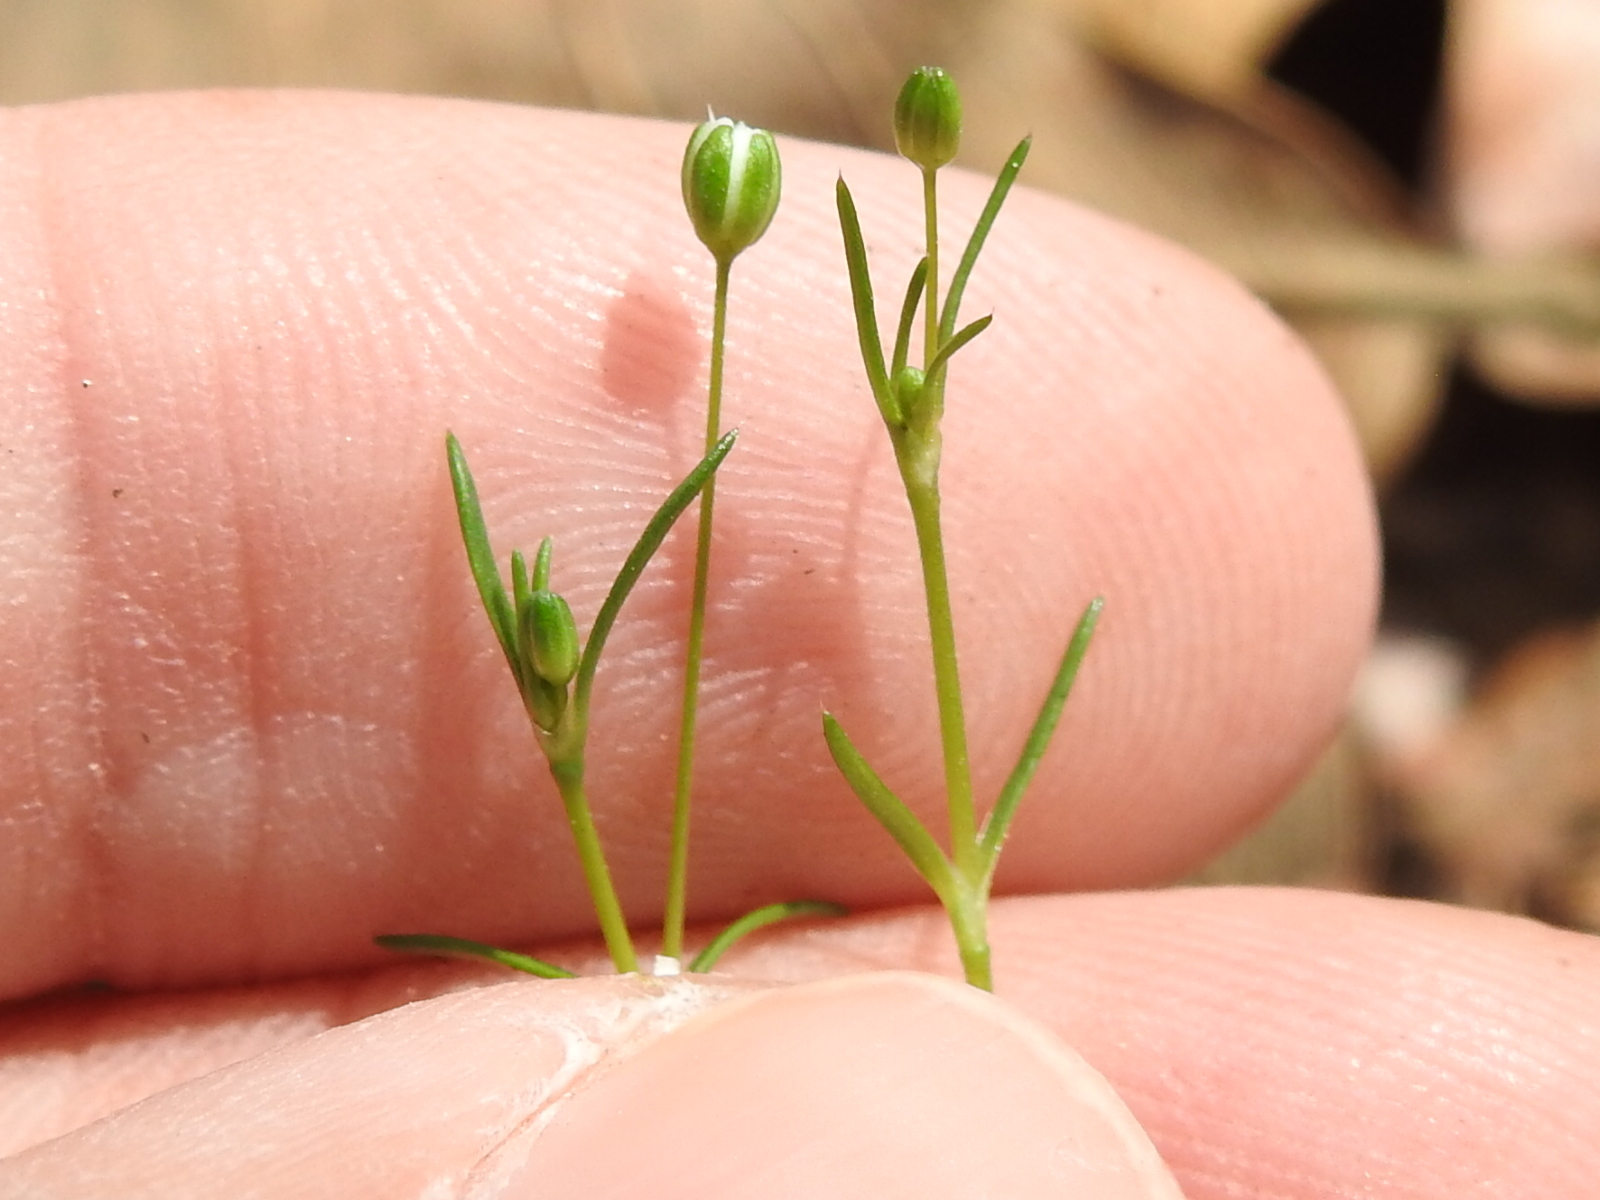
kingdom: Plantae
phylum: Tracheophyta
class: Magnoliopsida
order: Caryophyllales
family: Caryophyllaceae
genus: Sagina
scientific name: Sagina decumbens
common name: Decumbent pearlwort
